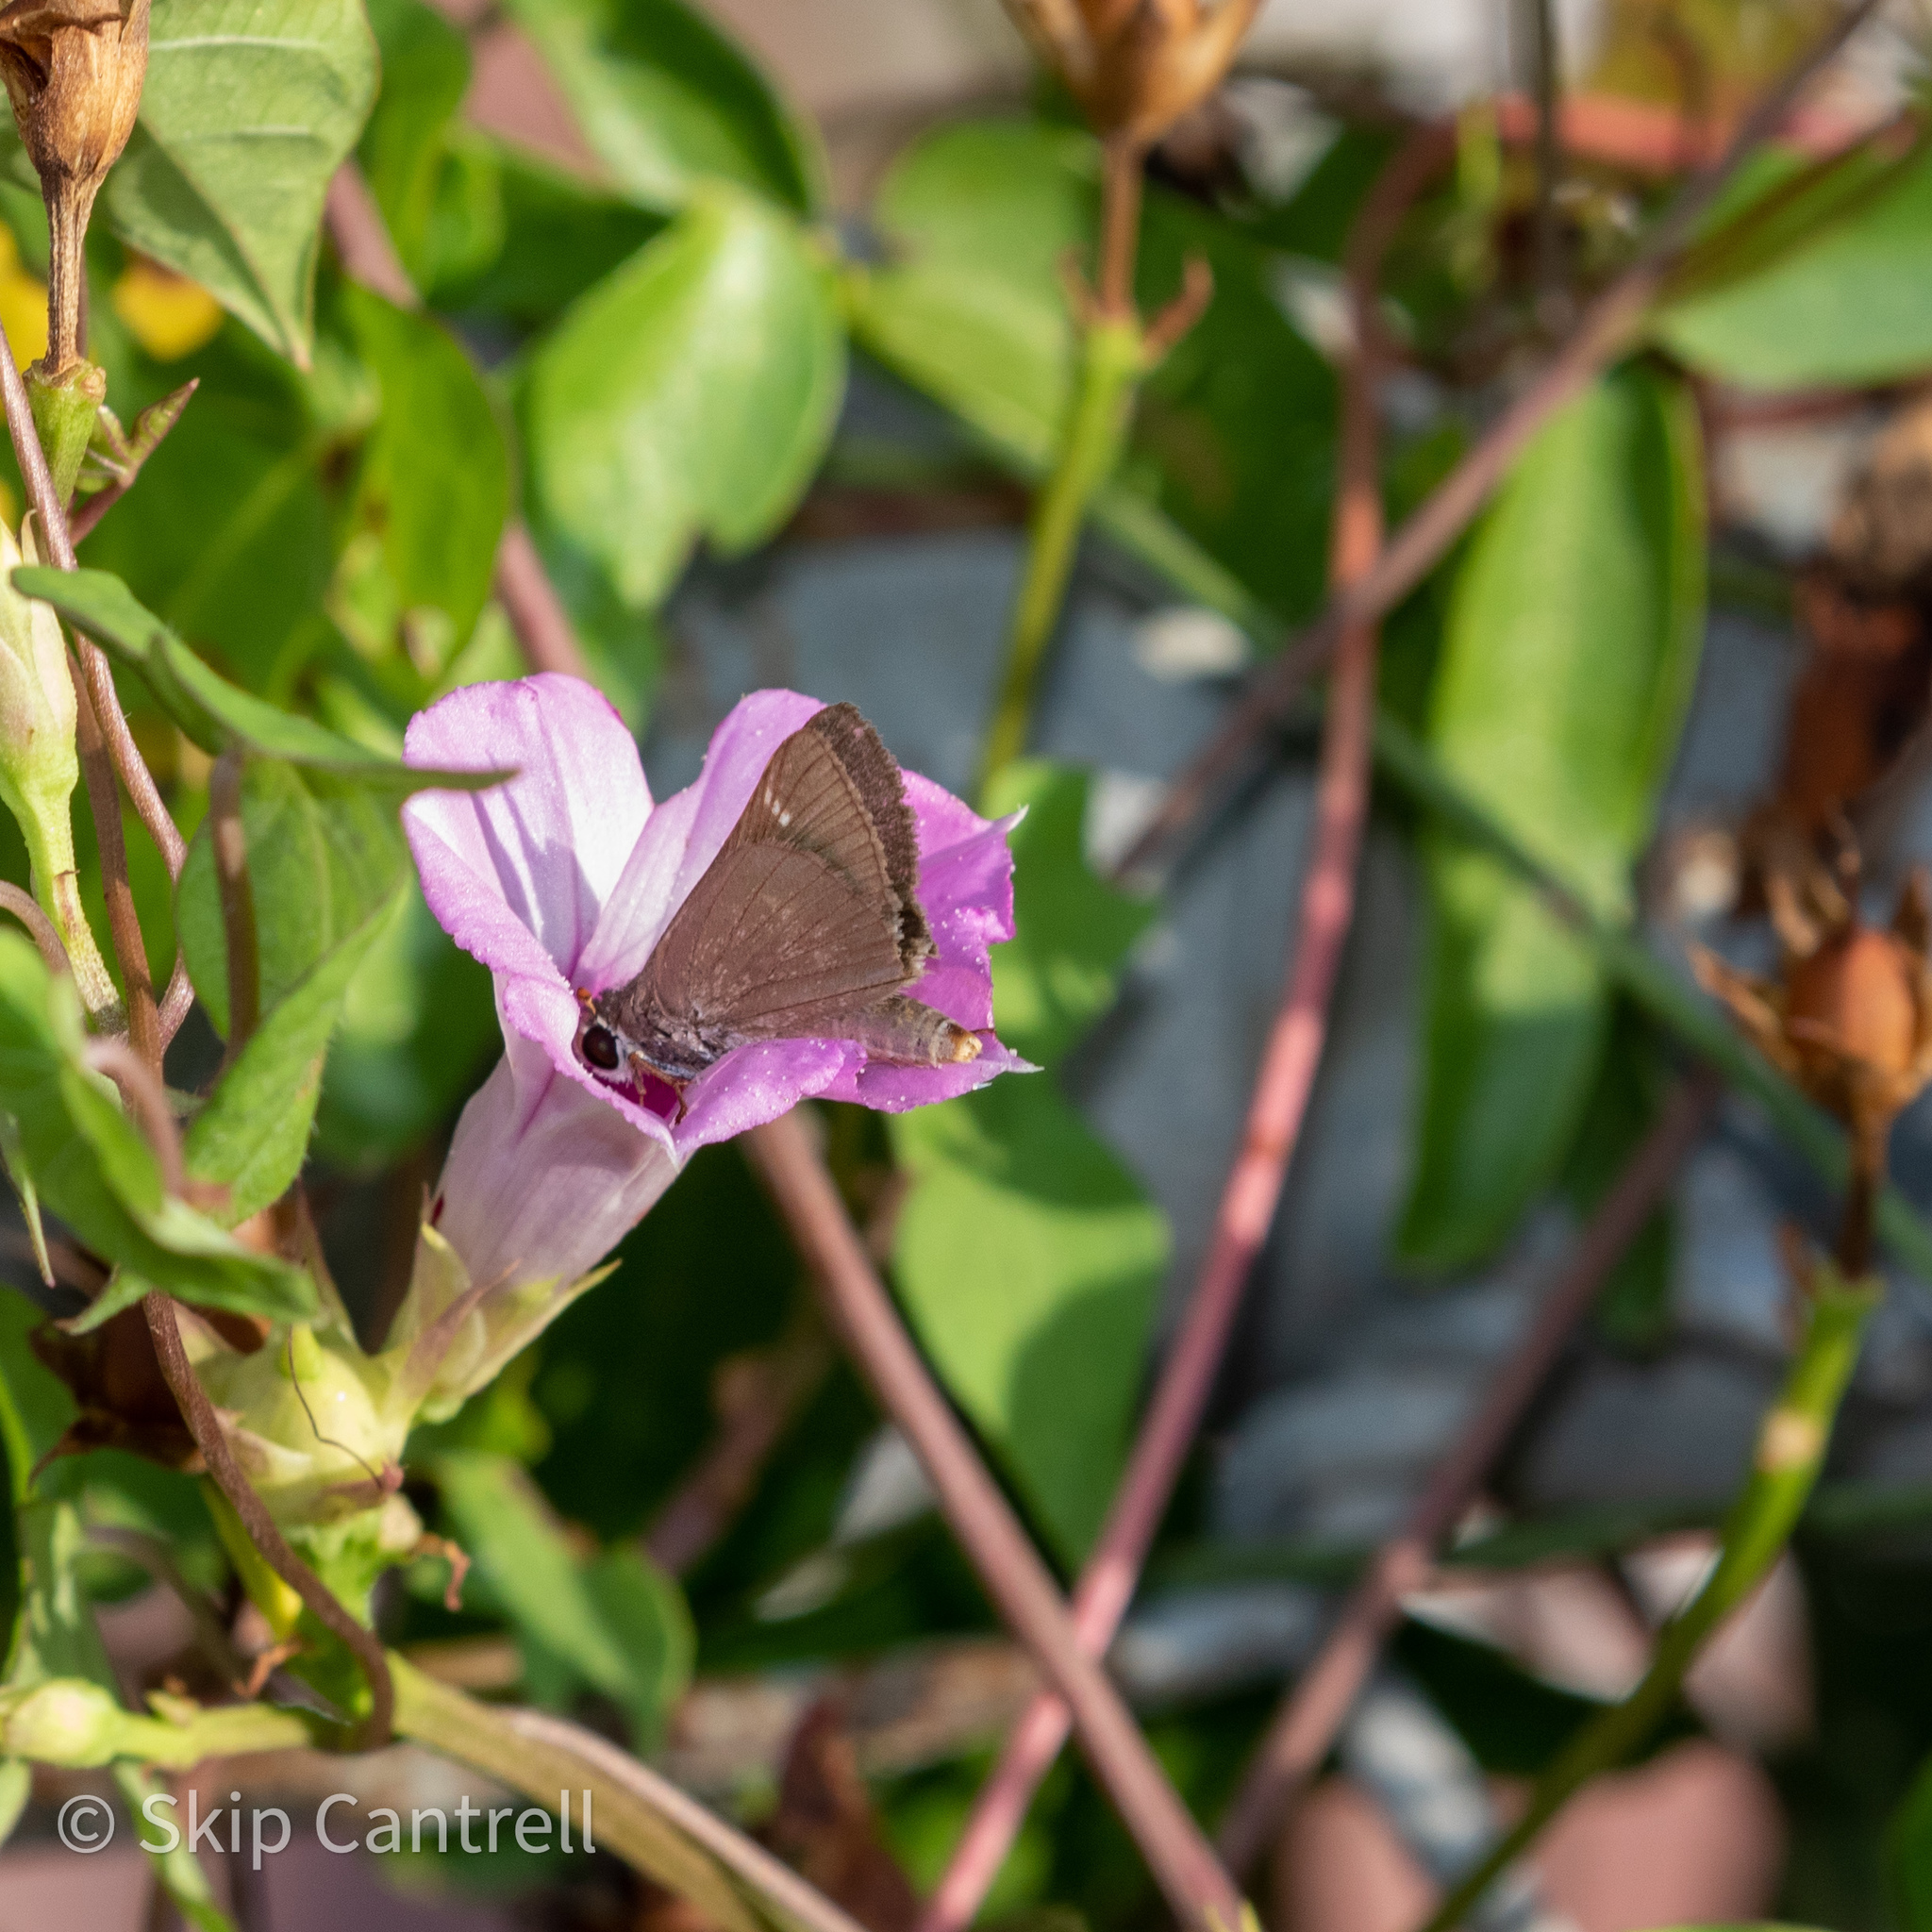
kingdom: Animalia
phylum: Arthropoda
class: Insecta
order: Lepidoptera
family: Hesperiidae
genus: Lerodea
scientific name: Lerodea eufala
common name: Eufala skipper
